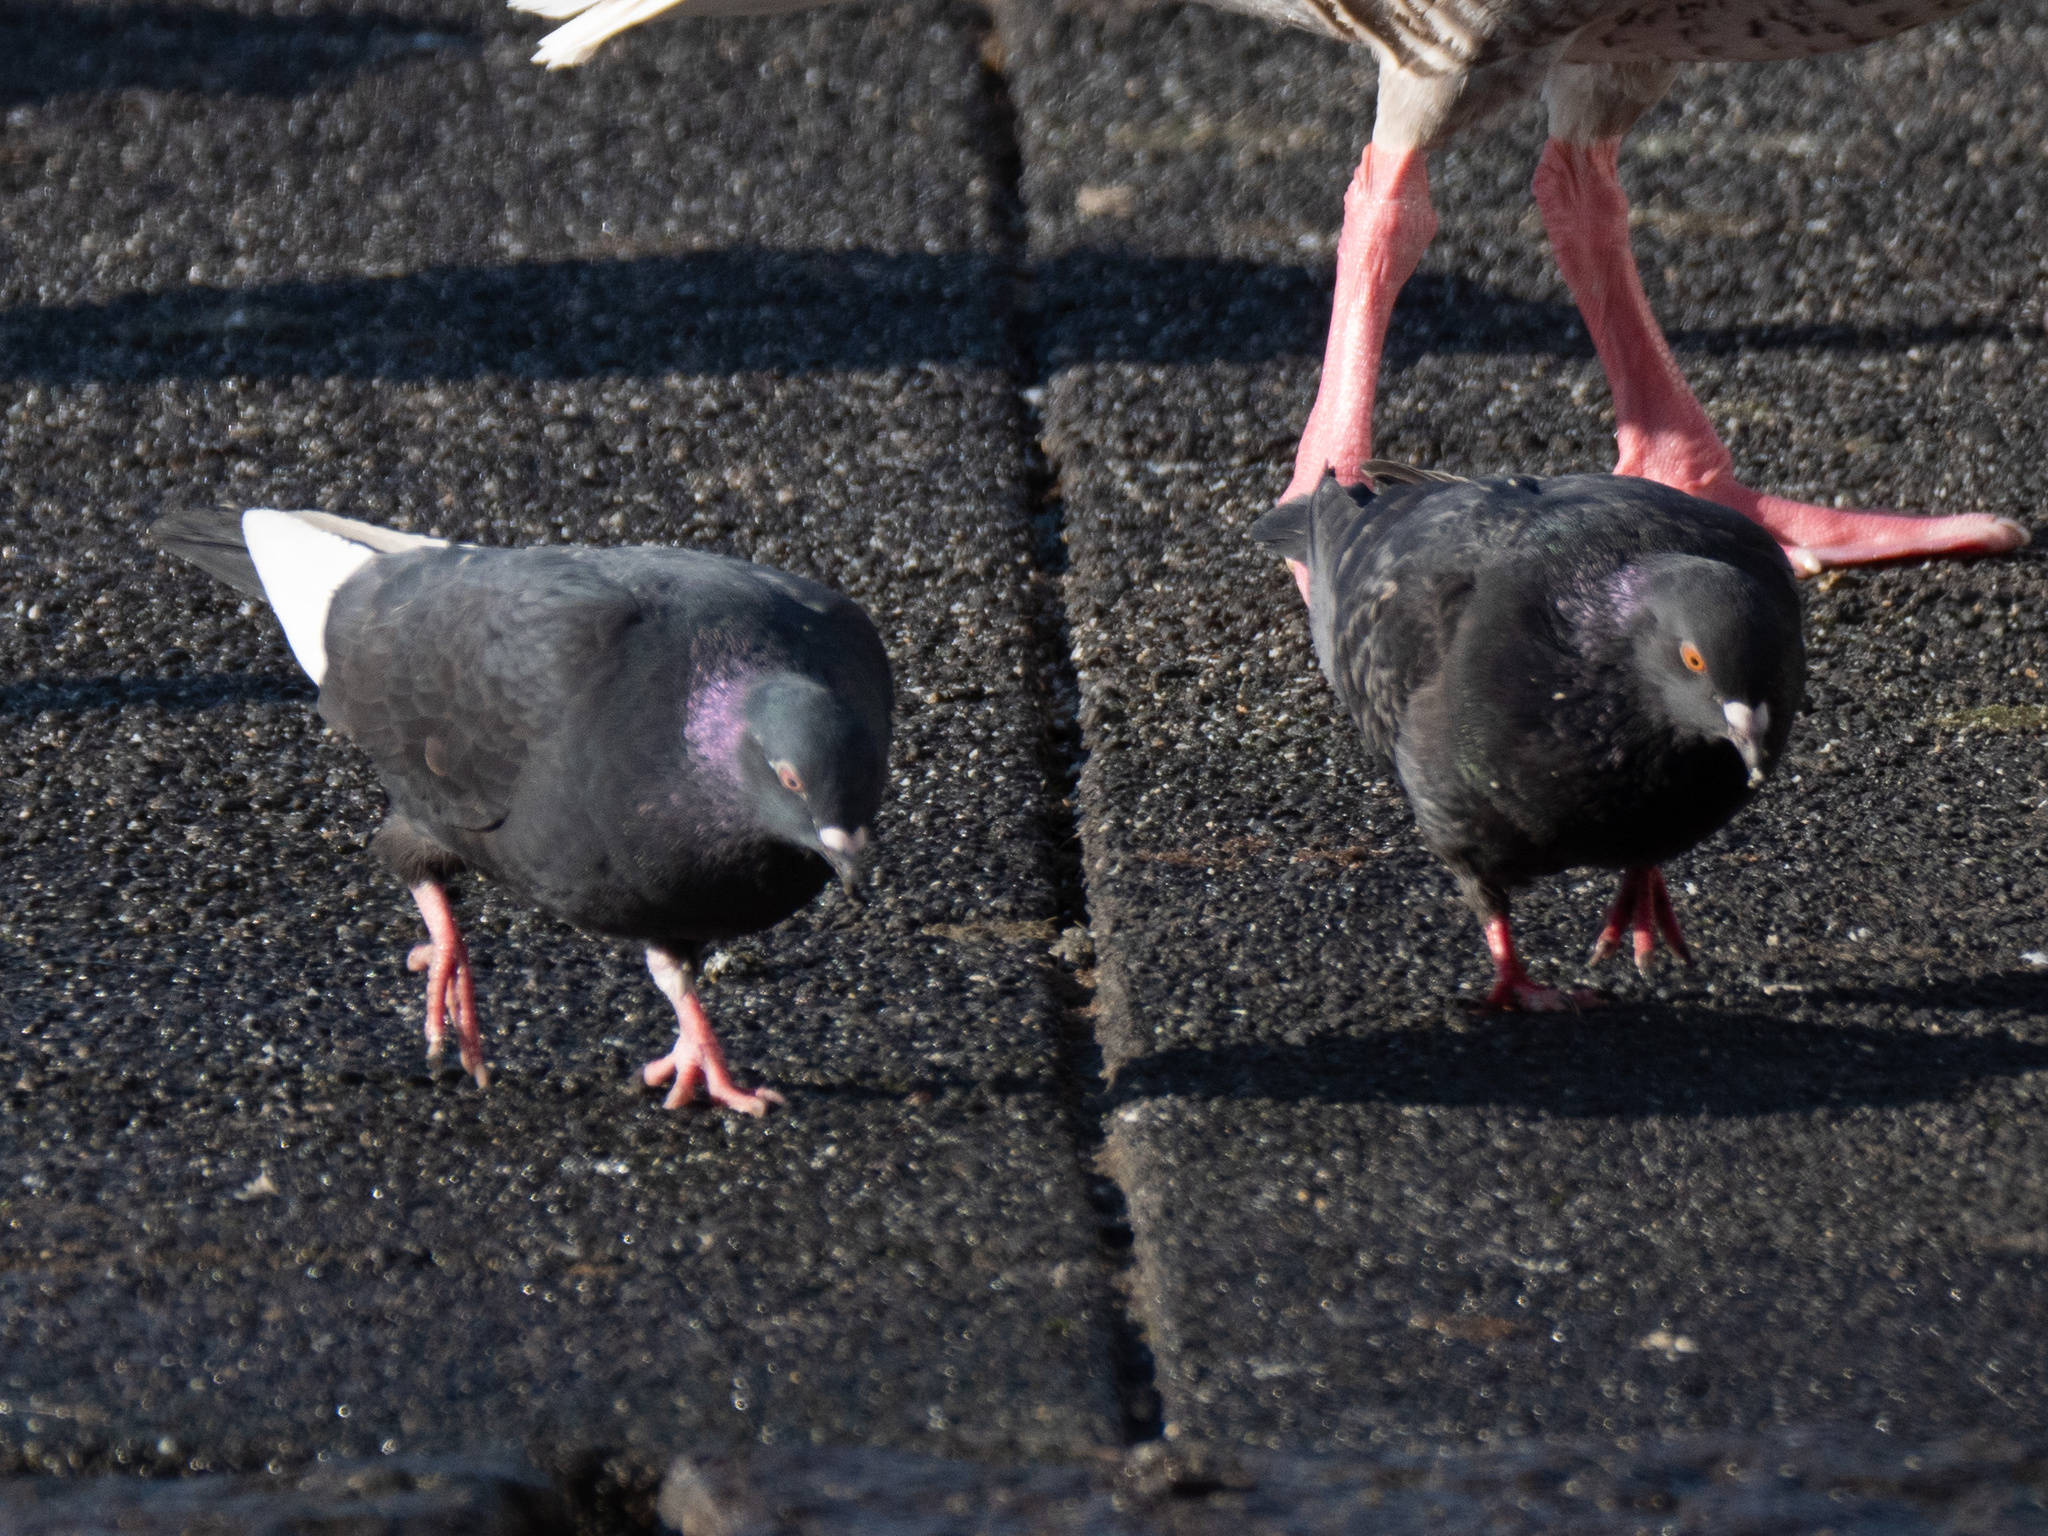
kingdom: Animalia
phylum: Chordata
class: Aves
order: Columbiformes
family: Columbidae
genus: Columba
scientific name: Columba livia
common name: Rock pigeon
